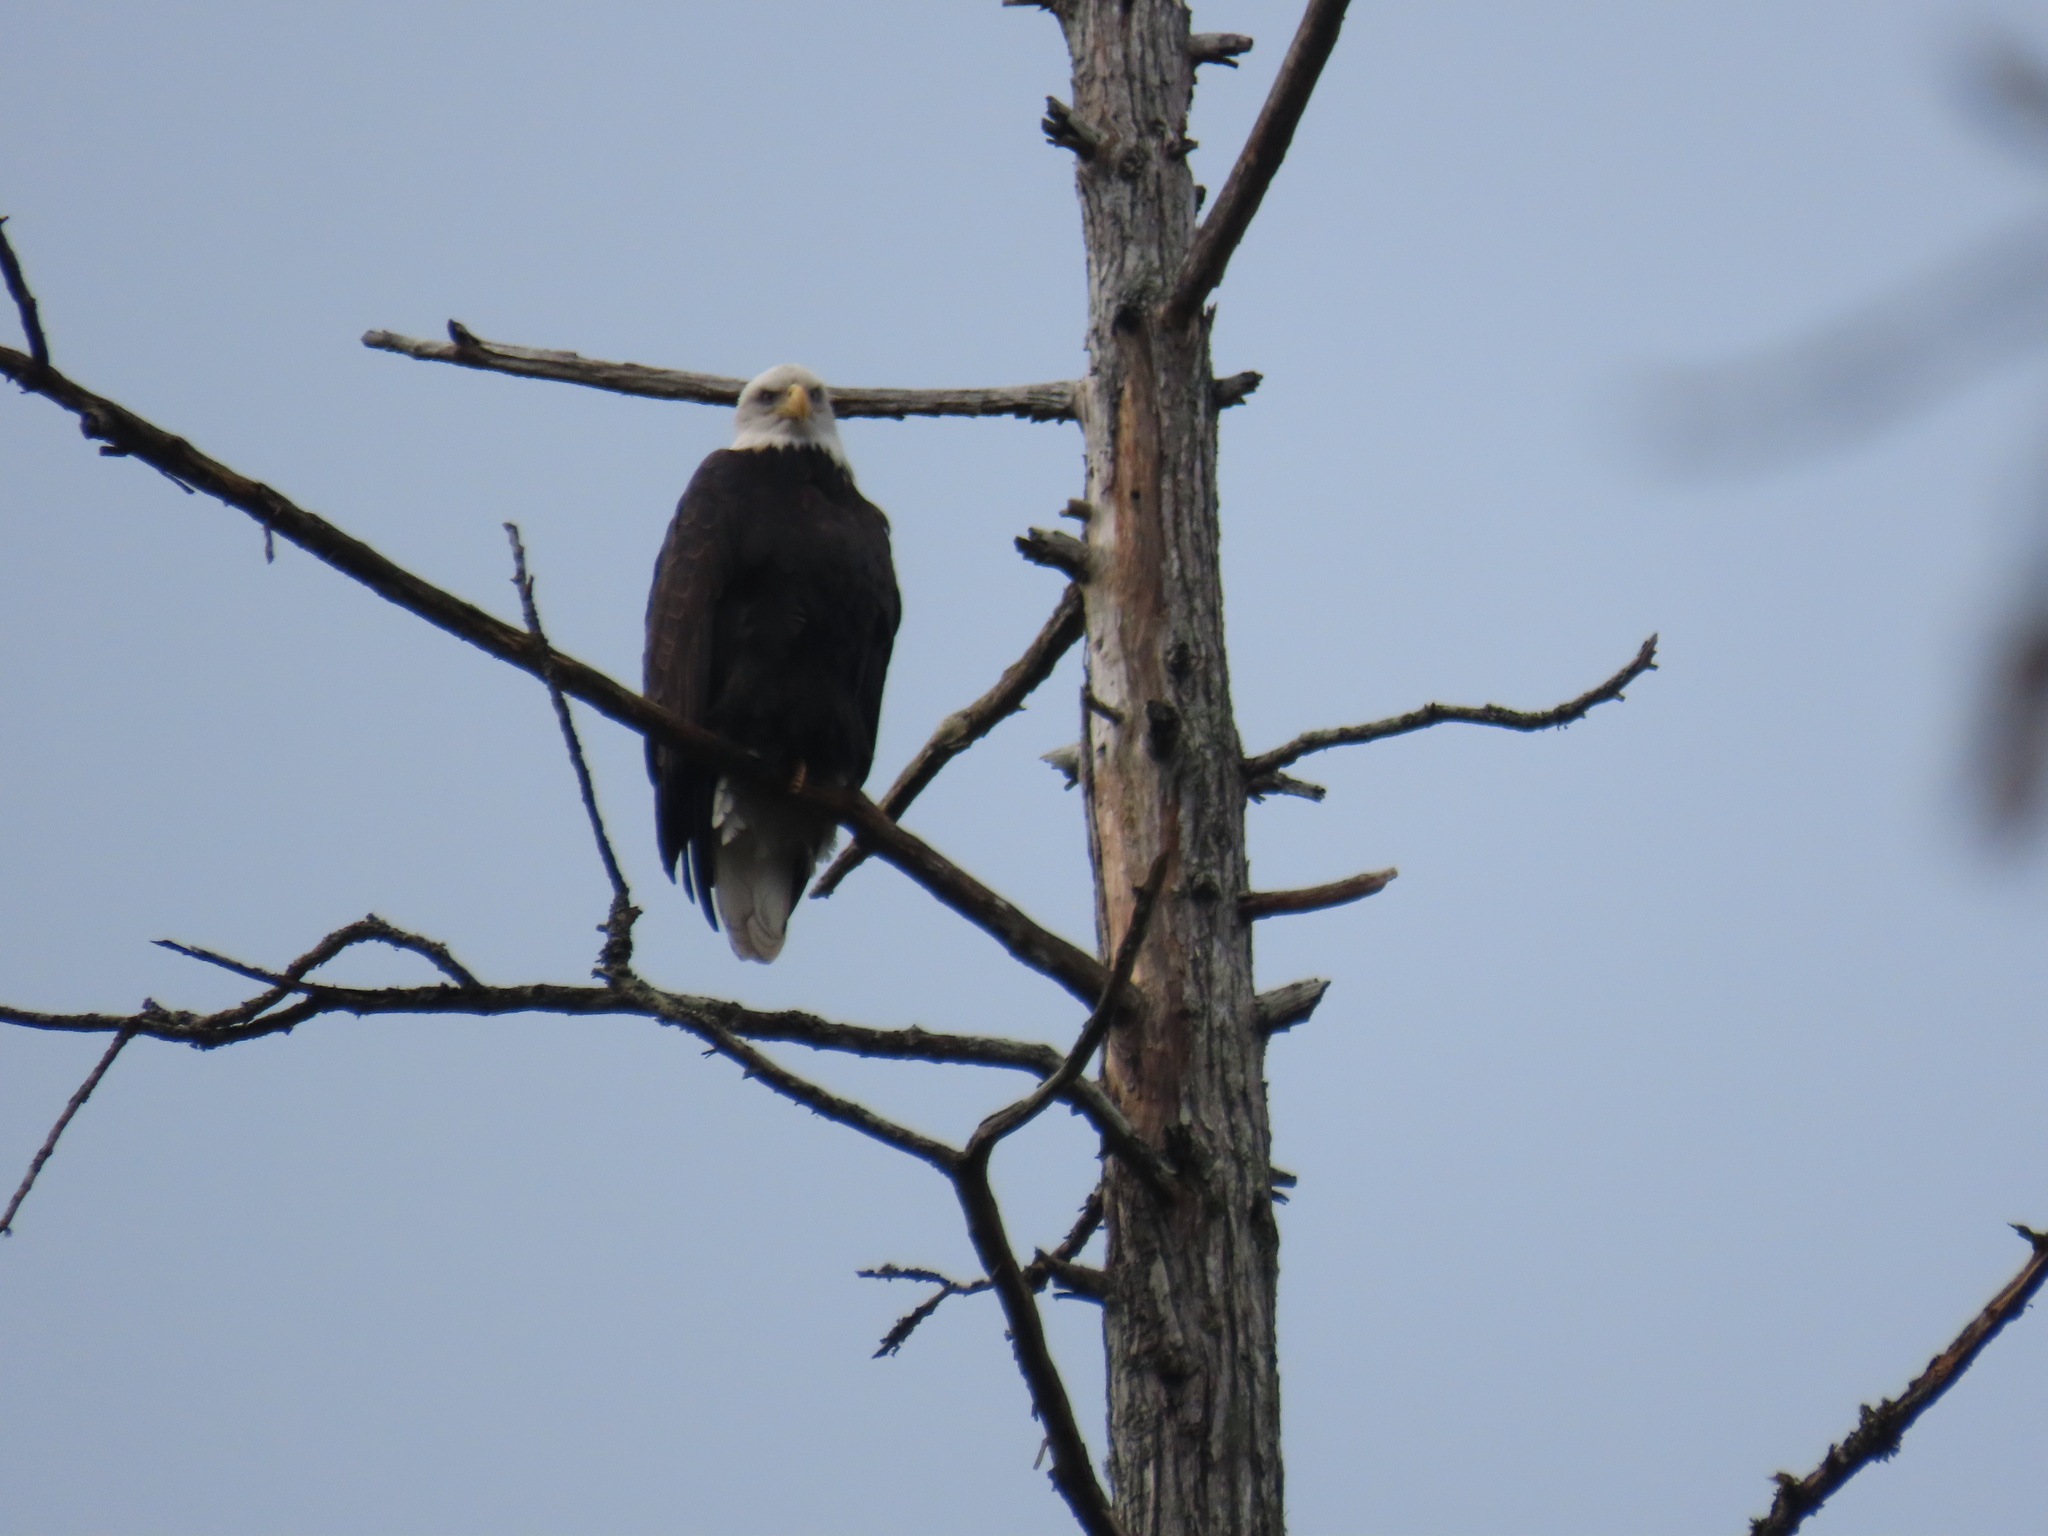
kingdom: Animalia
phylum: Chordata
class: Aves
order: Accipitriformes
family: Accipitridae
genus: Haliaeetus
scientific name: Haliaeetus leucocephalus
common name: Bald eagle
